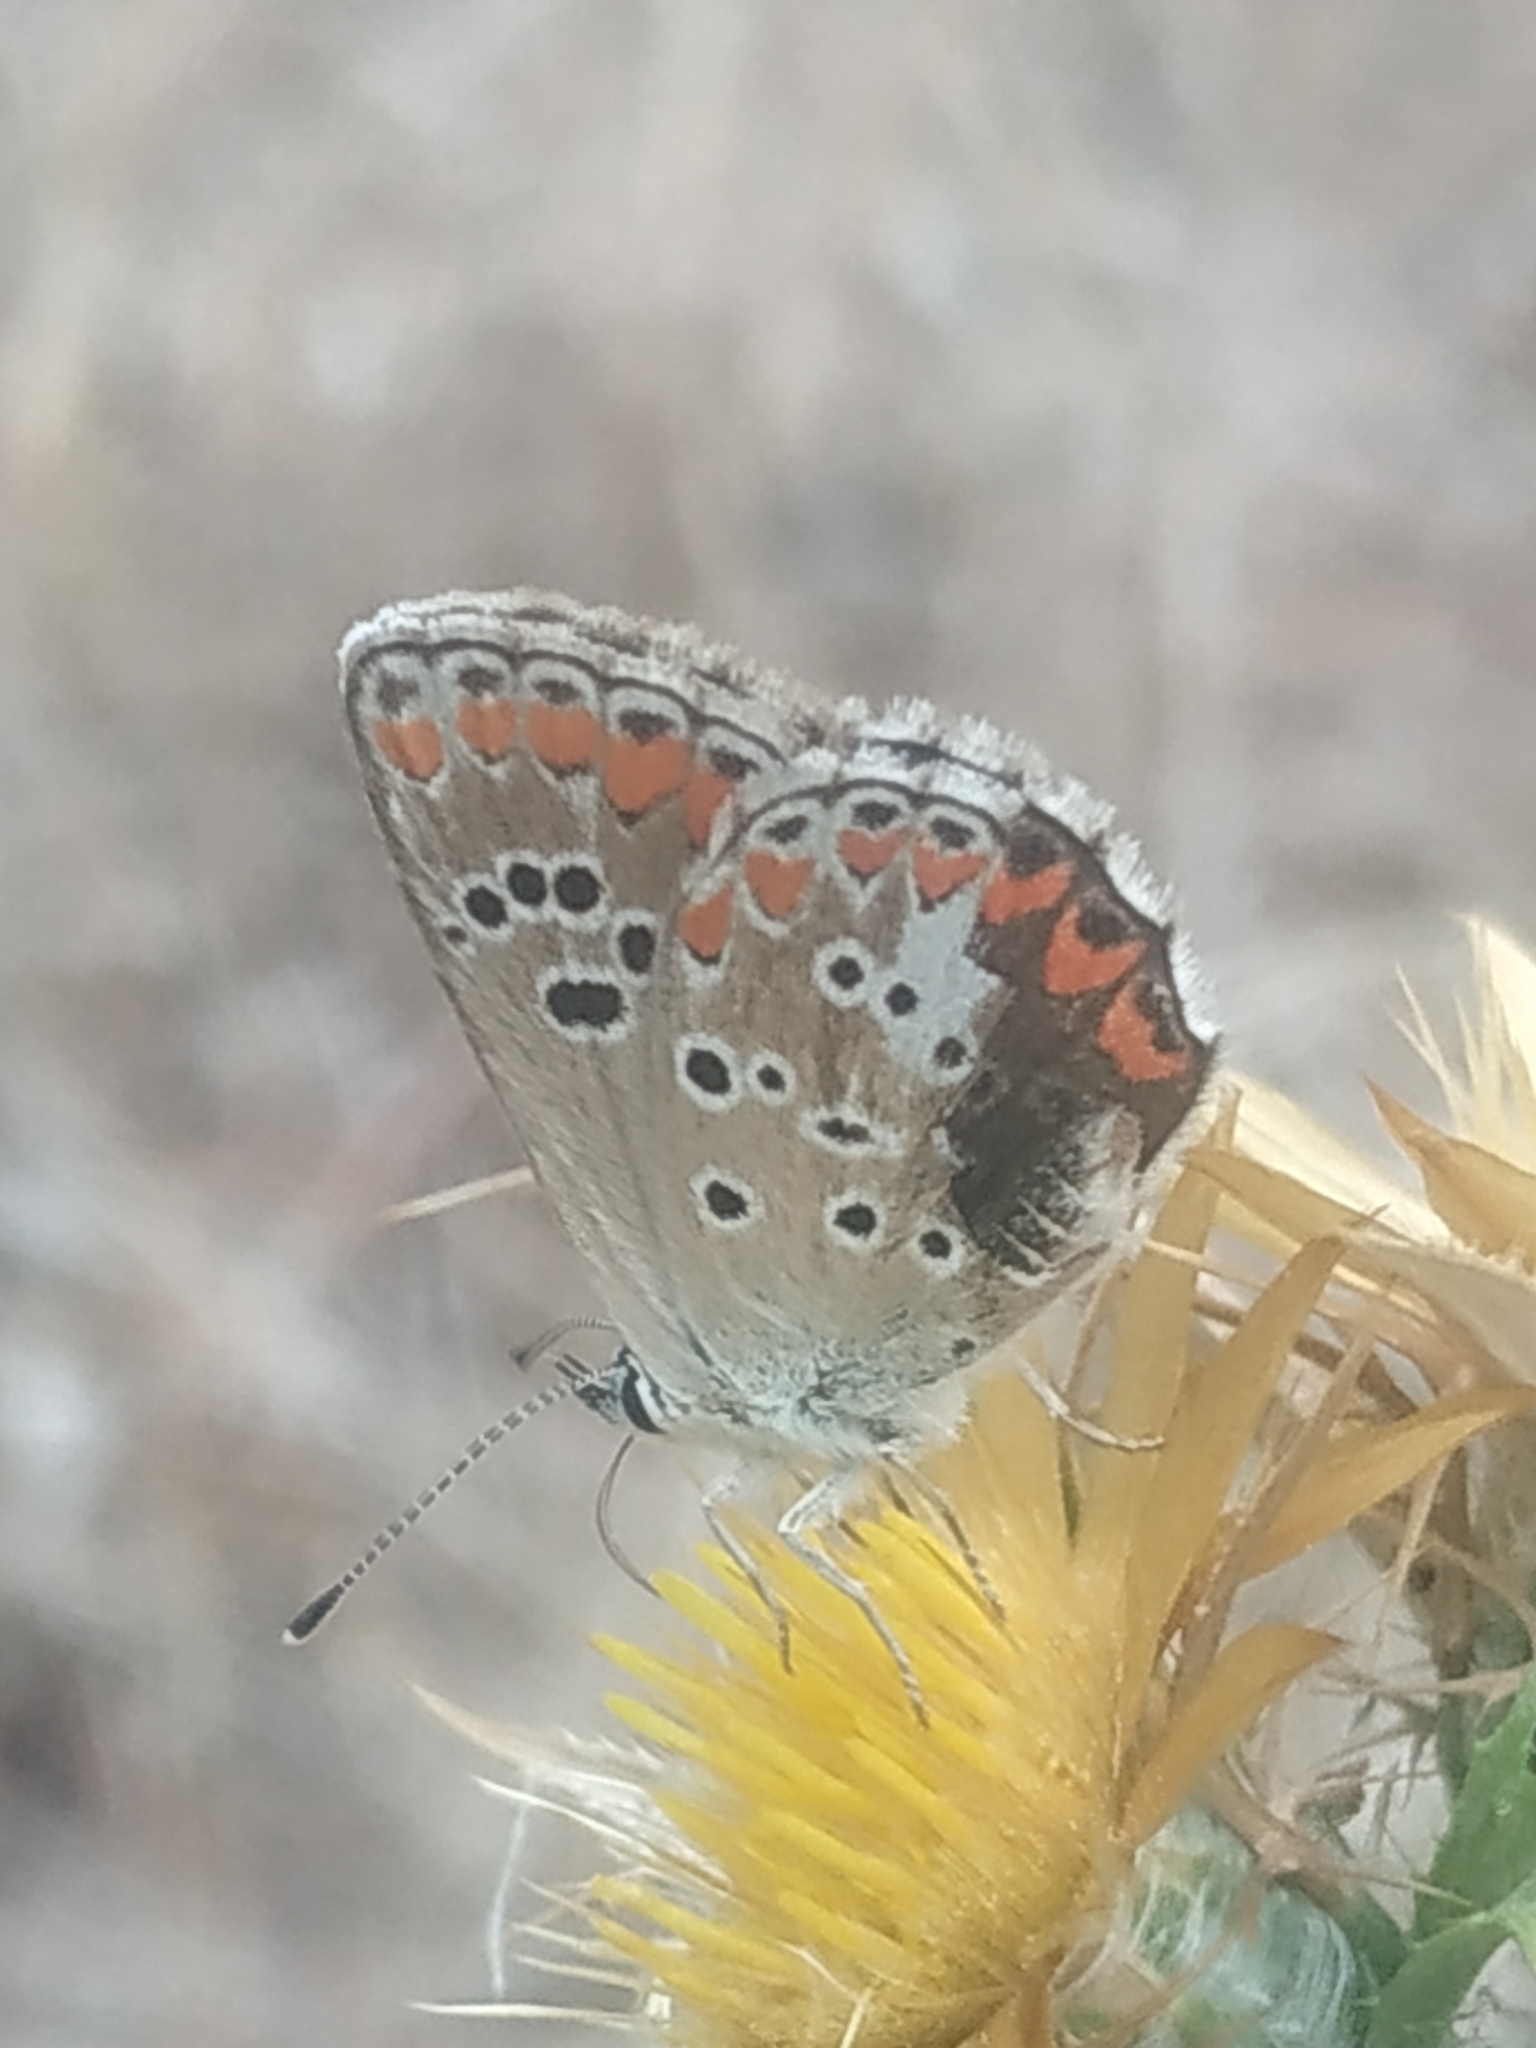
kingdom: Animalia
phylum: Arthropoda
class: Insecta
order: Lepidoptera
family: Lycaenidae
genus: Aricia
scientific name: Aricia agestis
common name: Brown argus
